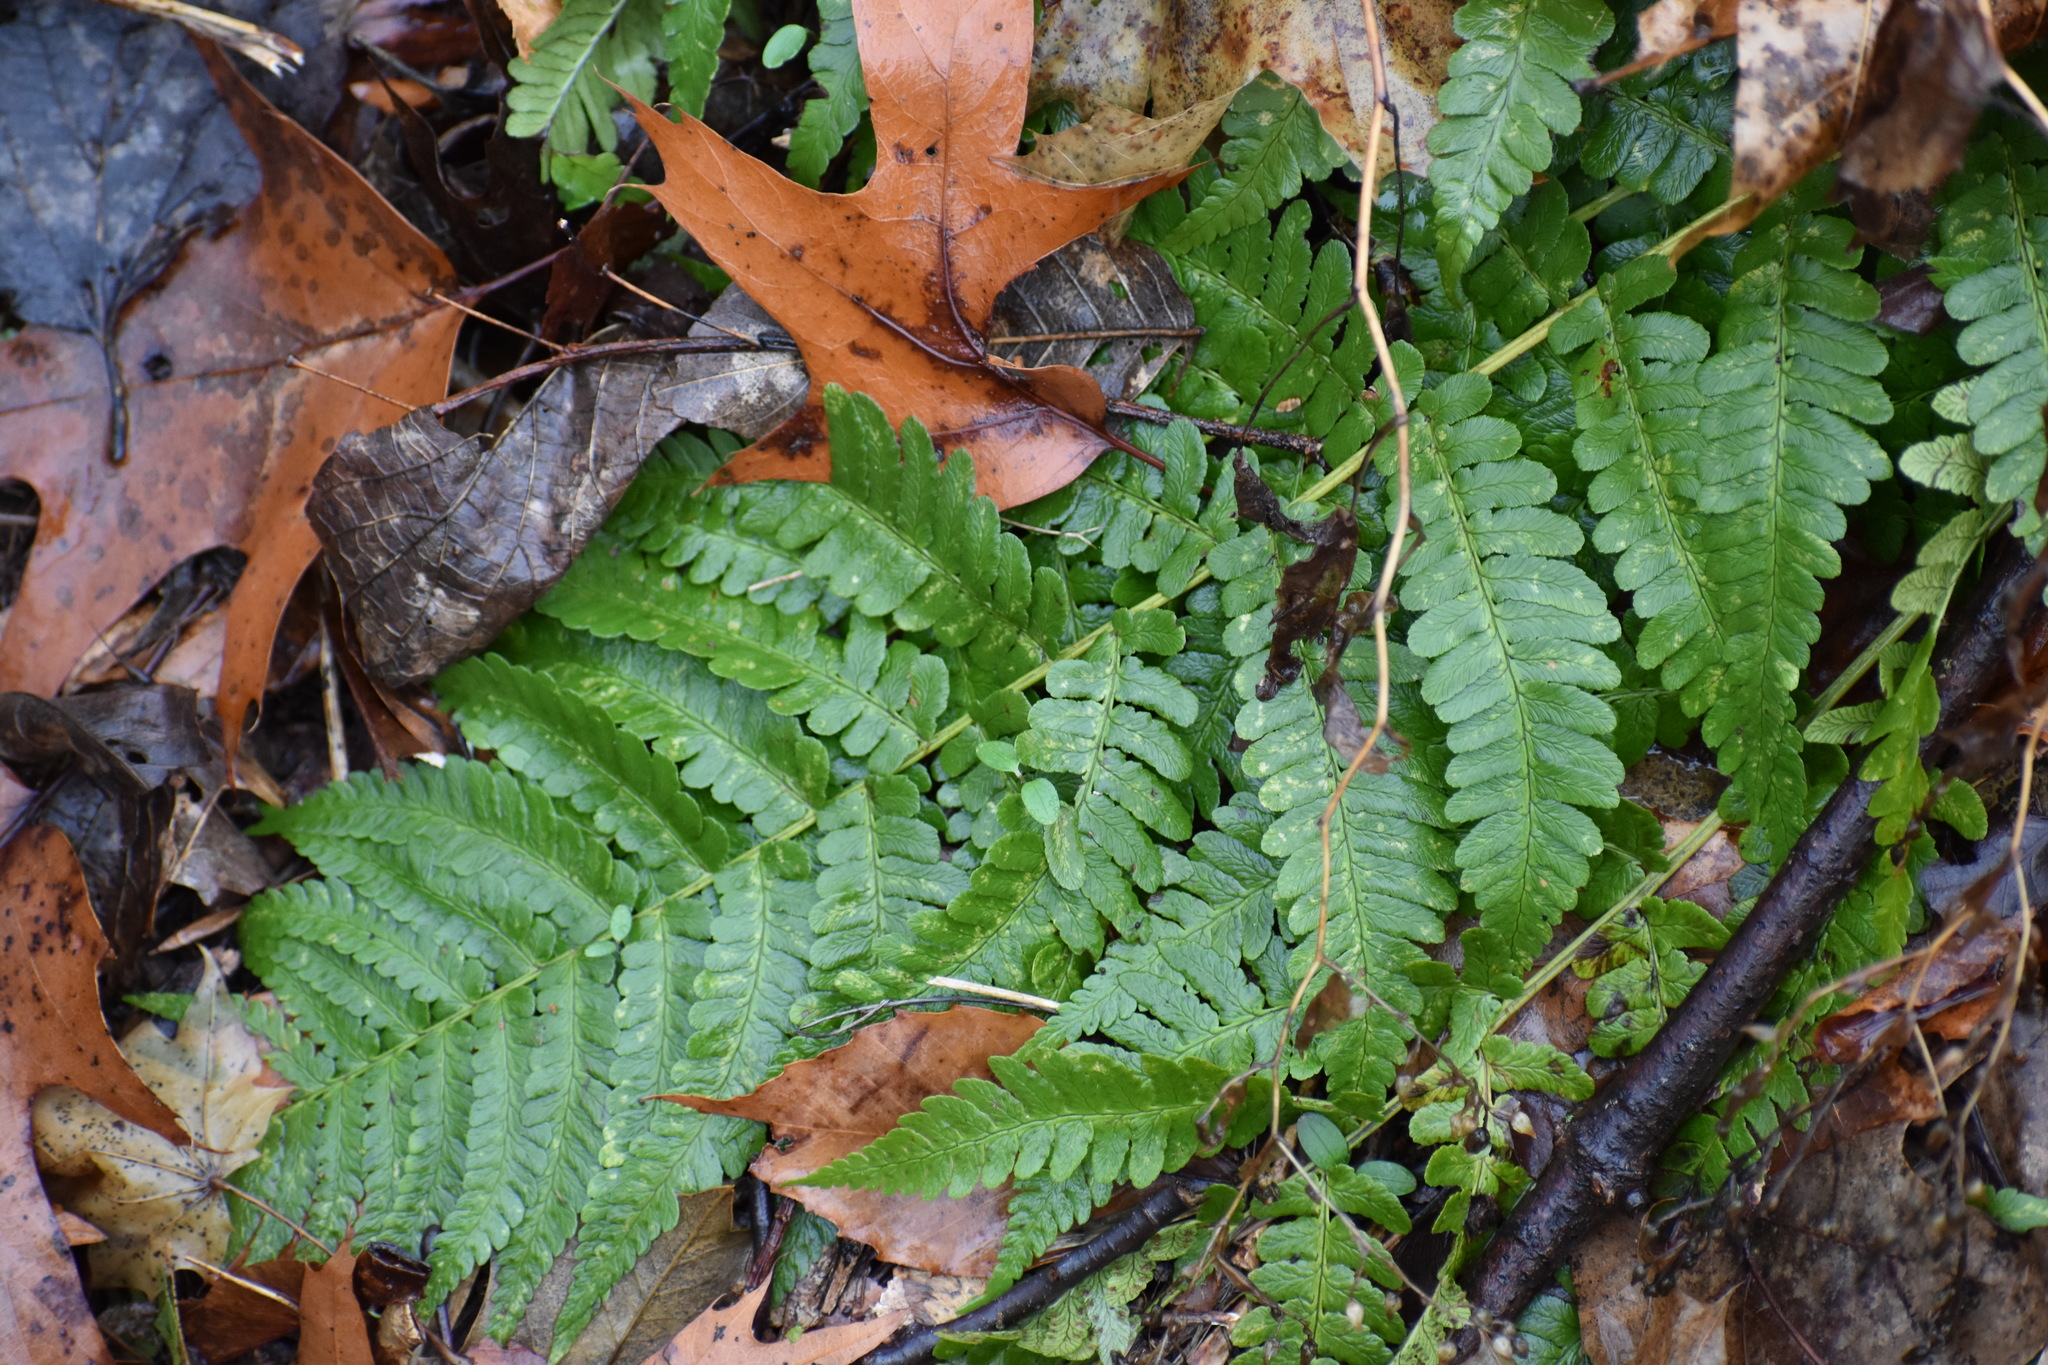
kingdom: Plantae
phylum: Tracheophyta
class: Polypodiopsida
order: Polypodiales
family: Dryopteridaceae
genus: Dryopteris
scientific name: Dryopteris marginalis
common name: Marginal wood fern
